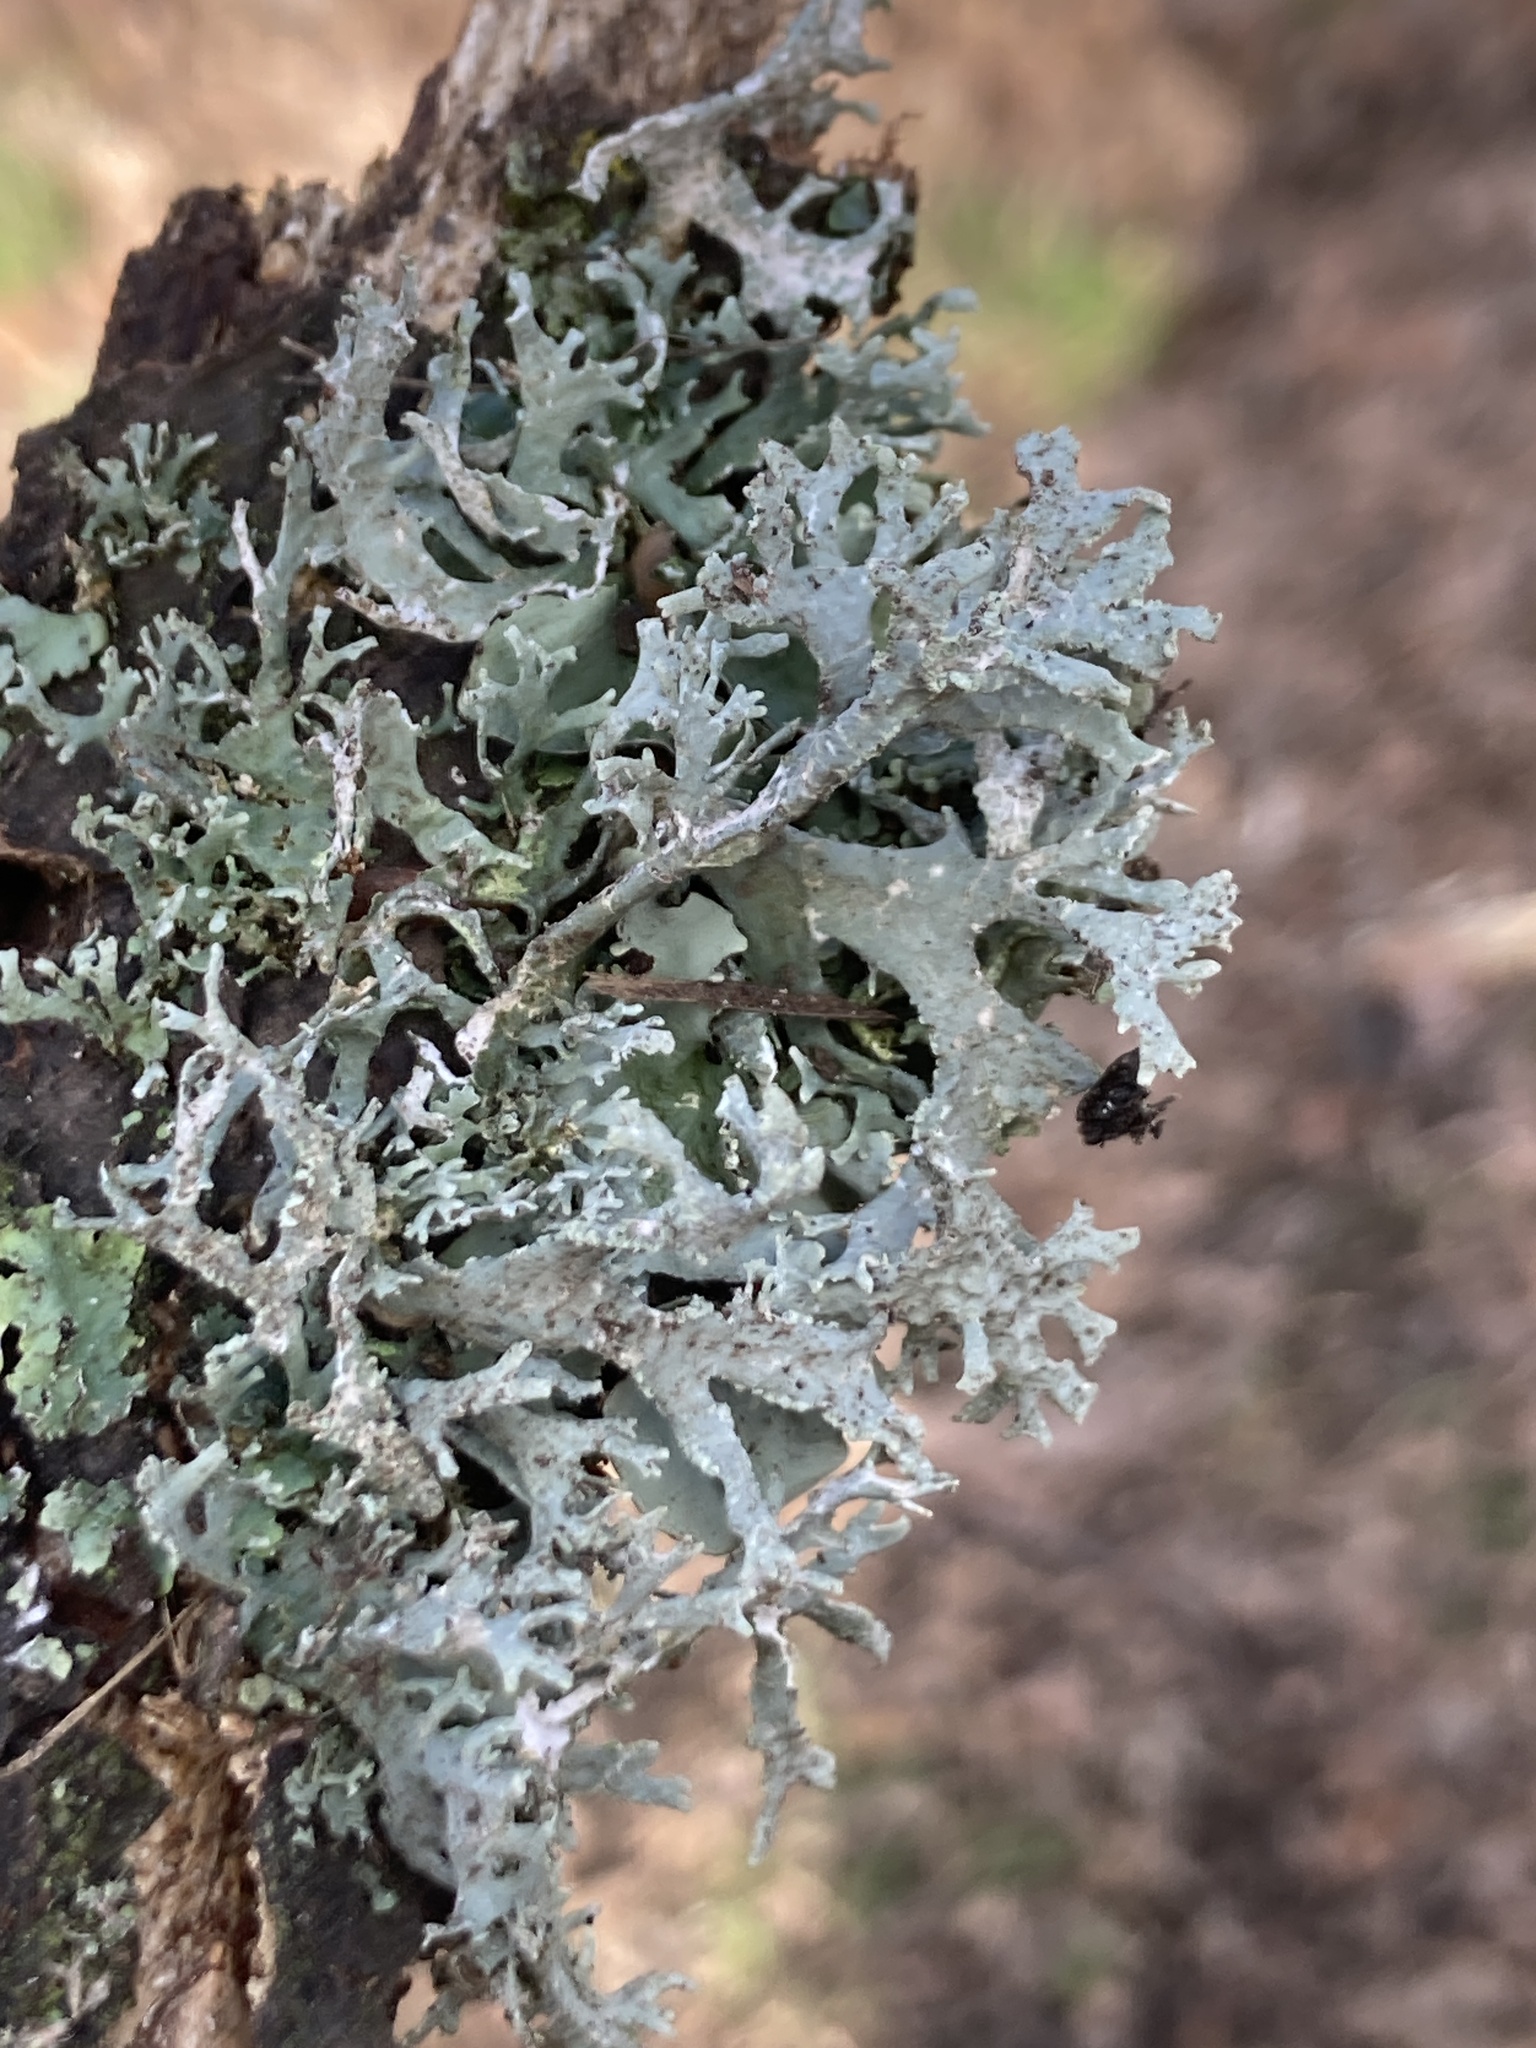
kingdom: Fungi
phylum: Ascomycota
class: Lecanoromycetes
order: Lecanorales
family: Parmeliaceae
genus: Evernia
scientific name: Evernia prunastri
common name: Oak moss
